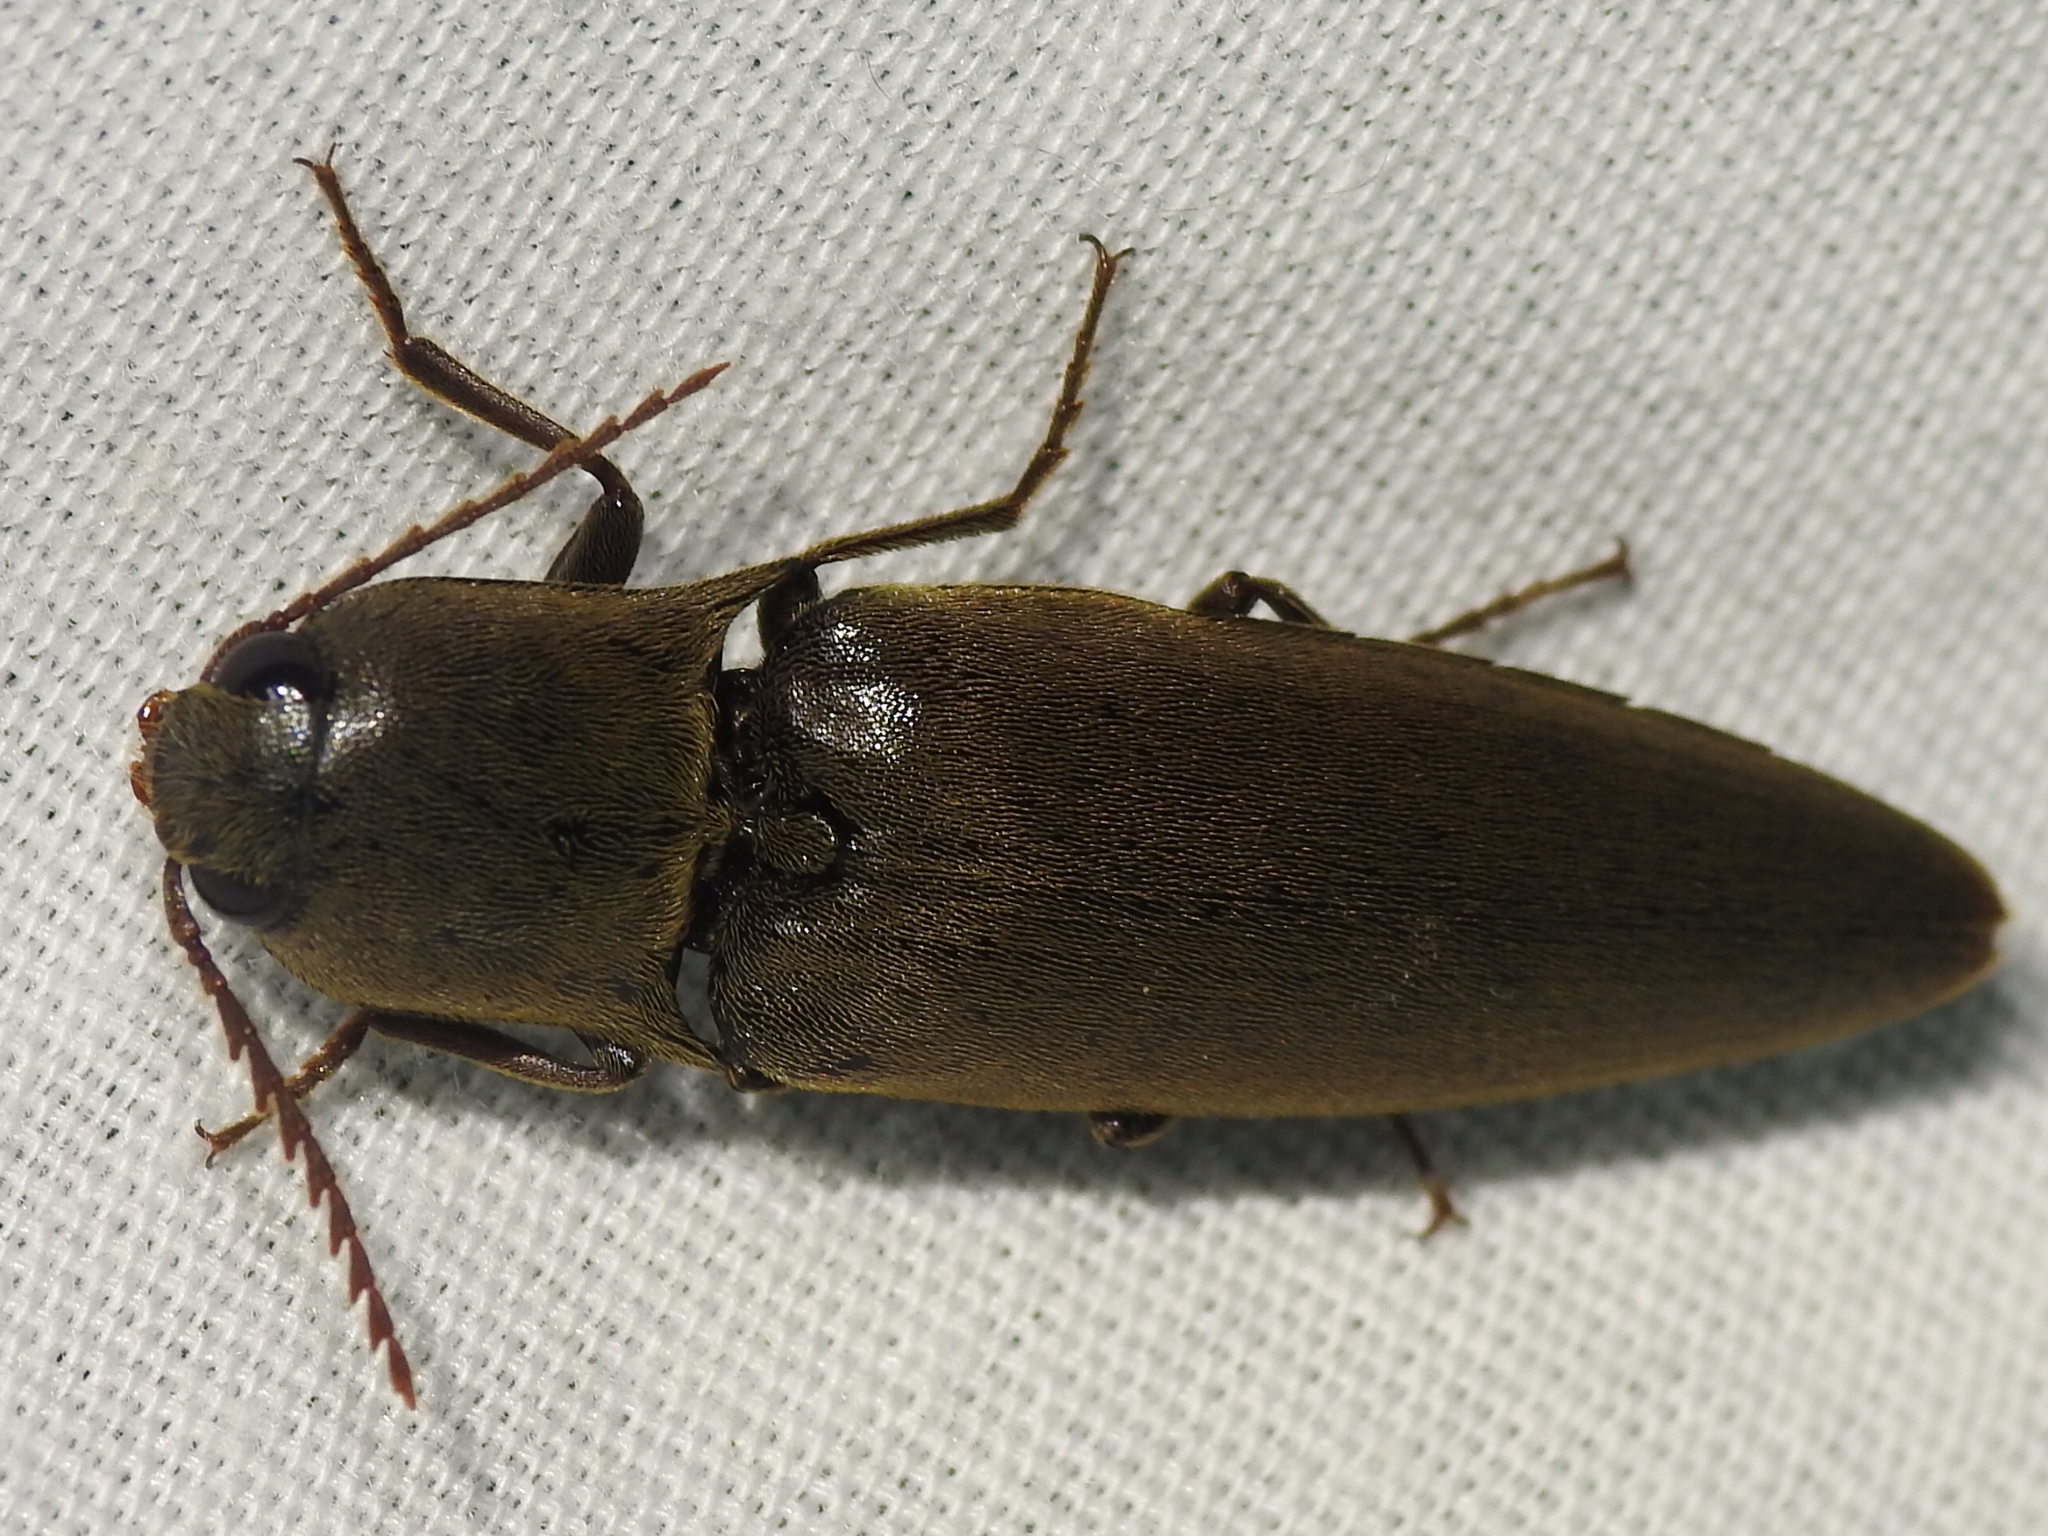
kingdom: Animalia
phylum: Arthropoda
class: Insecta
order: Coleoptera
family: Elateridae
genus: Orthostethus
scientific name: Orthostethus infuscatus
